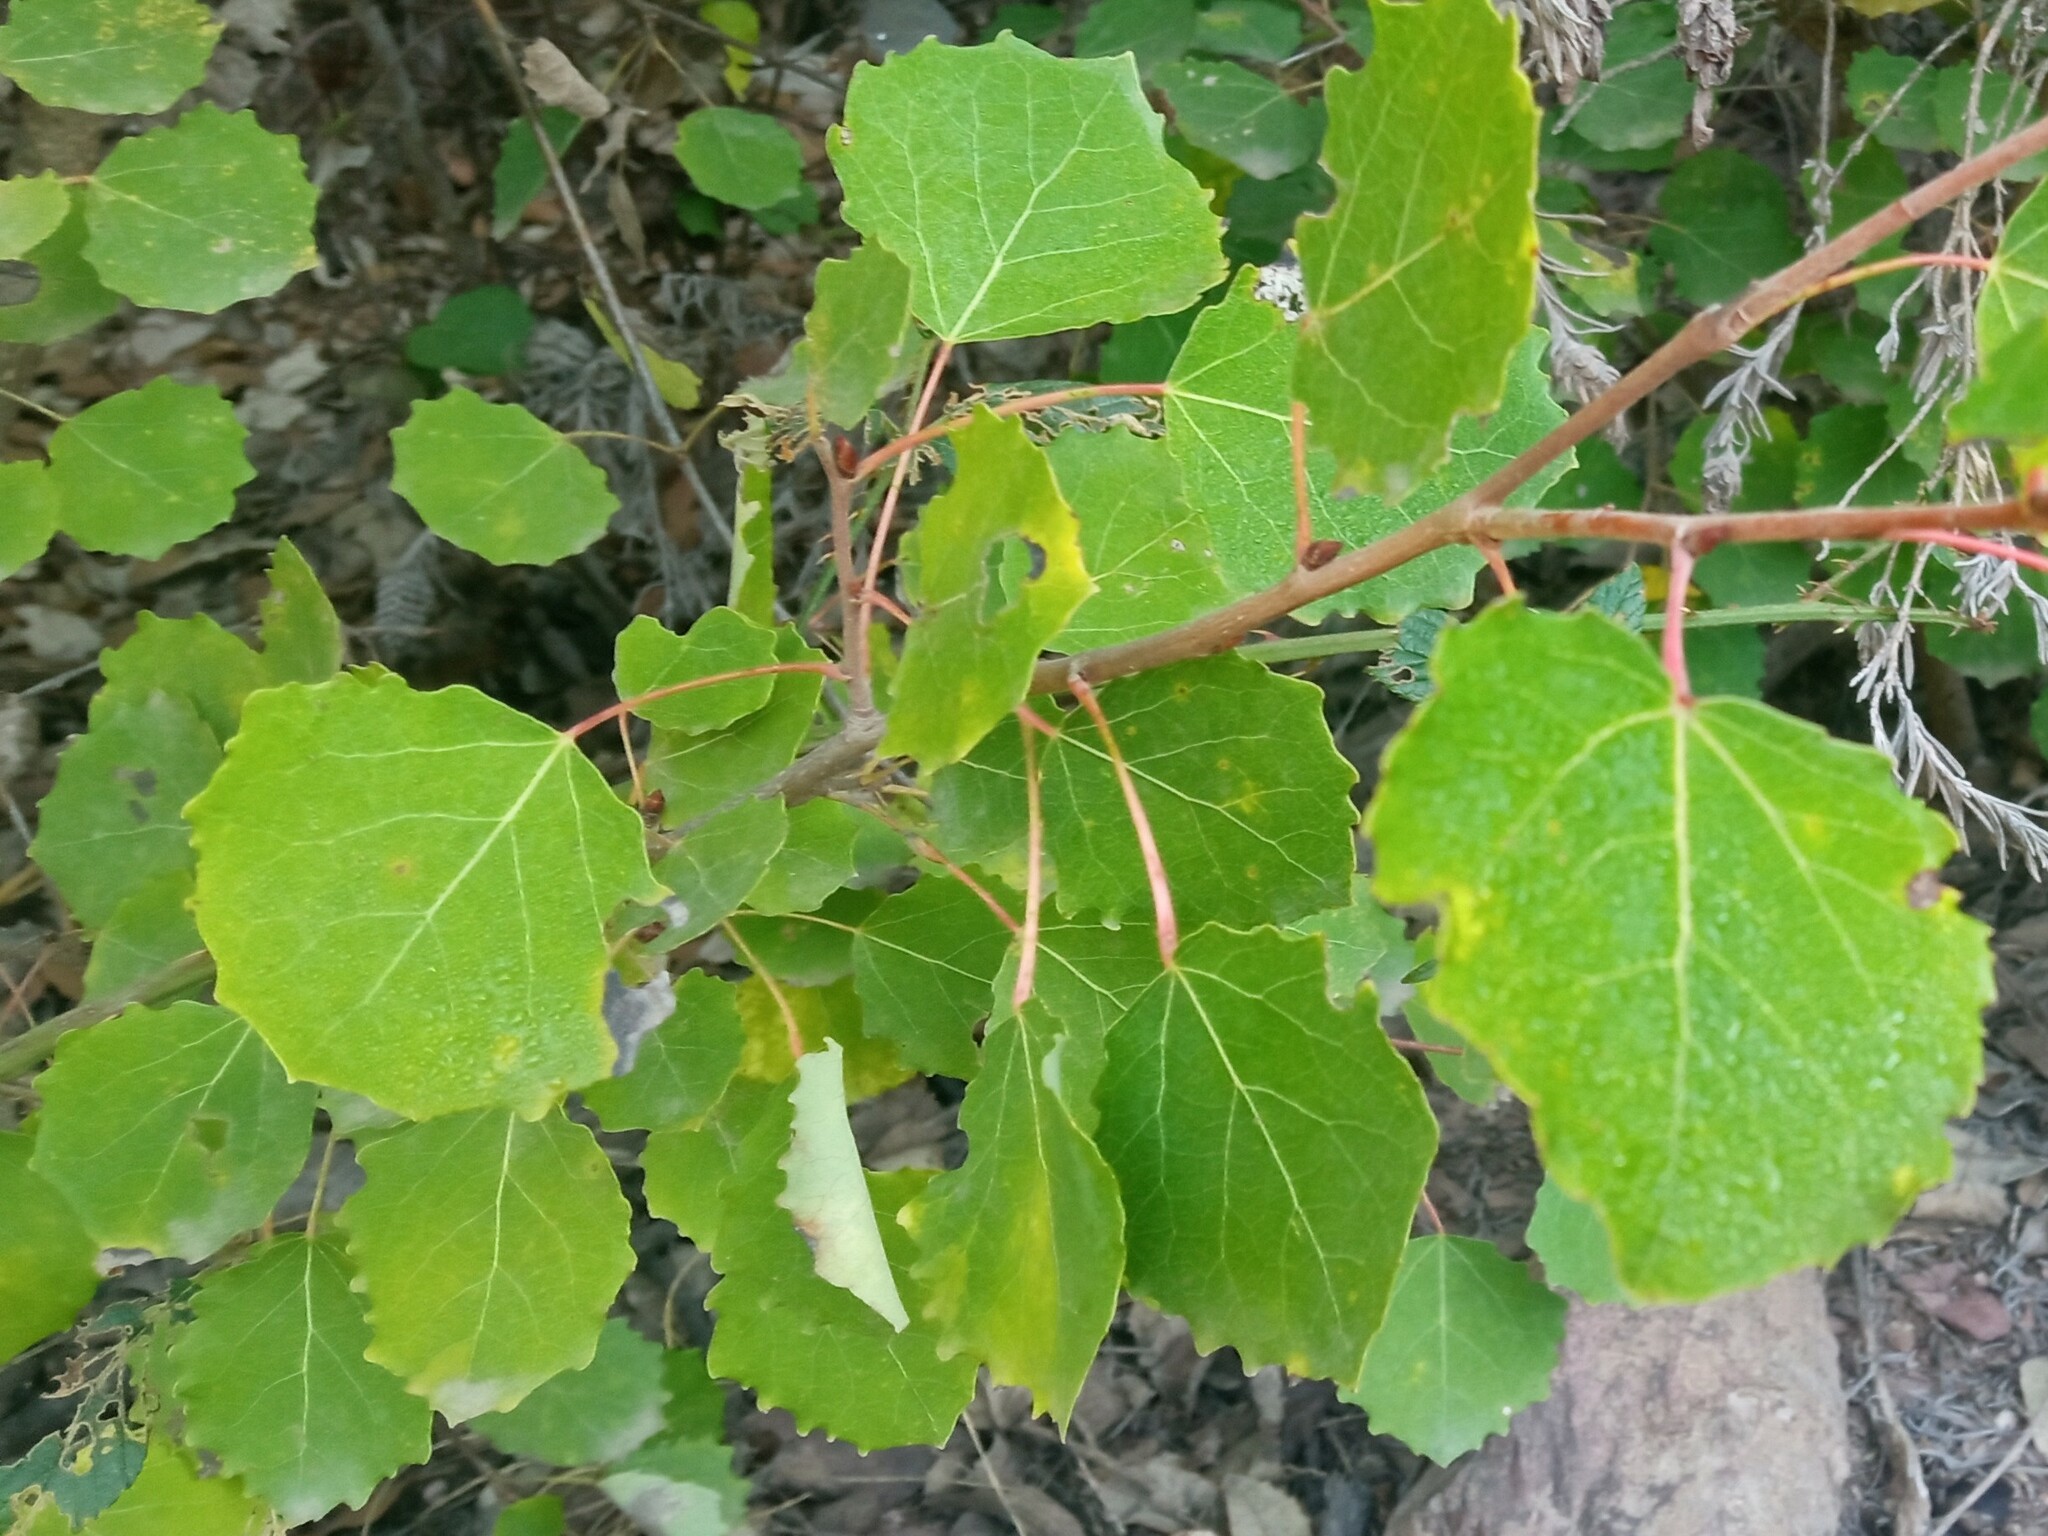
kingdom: Plantae
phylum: Tracheophyta
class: Magnoliopsida
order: Malpighiales
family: Salicaceae
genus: Populus
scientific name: Populus tremula
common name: European aspen
